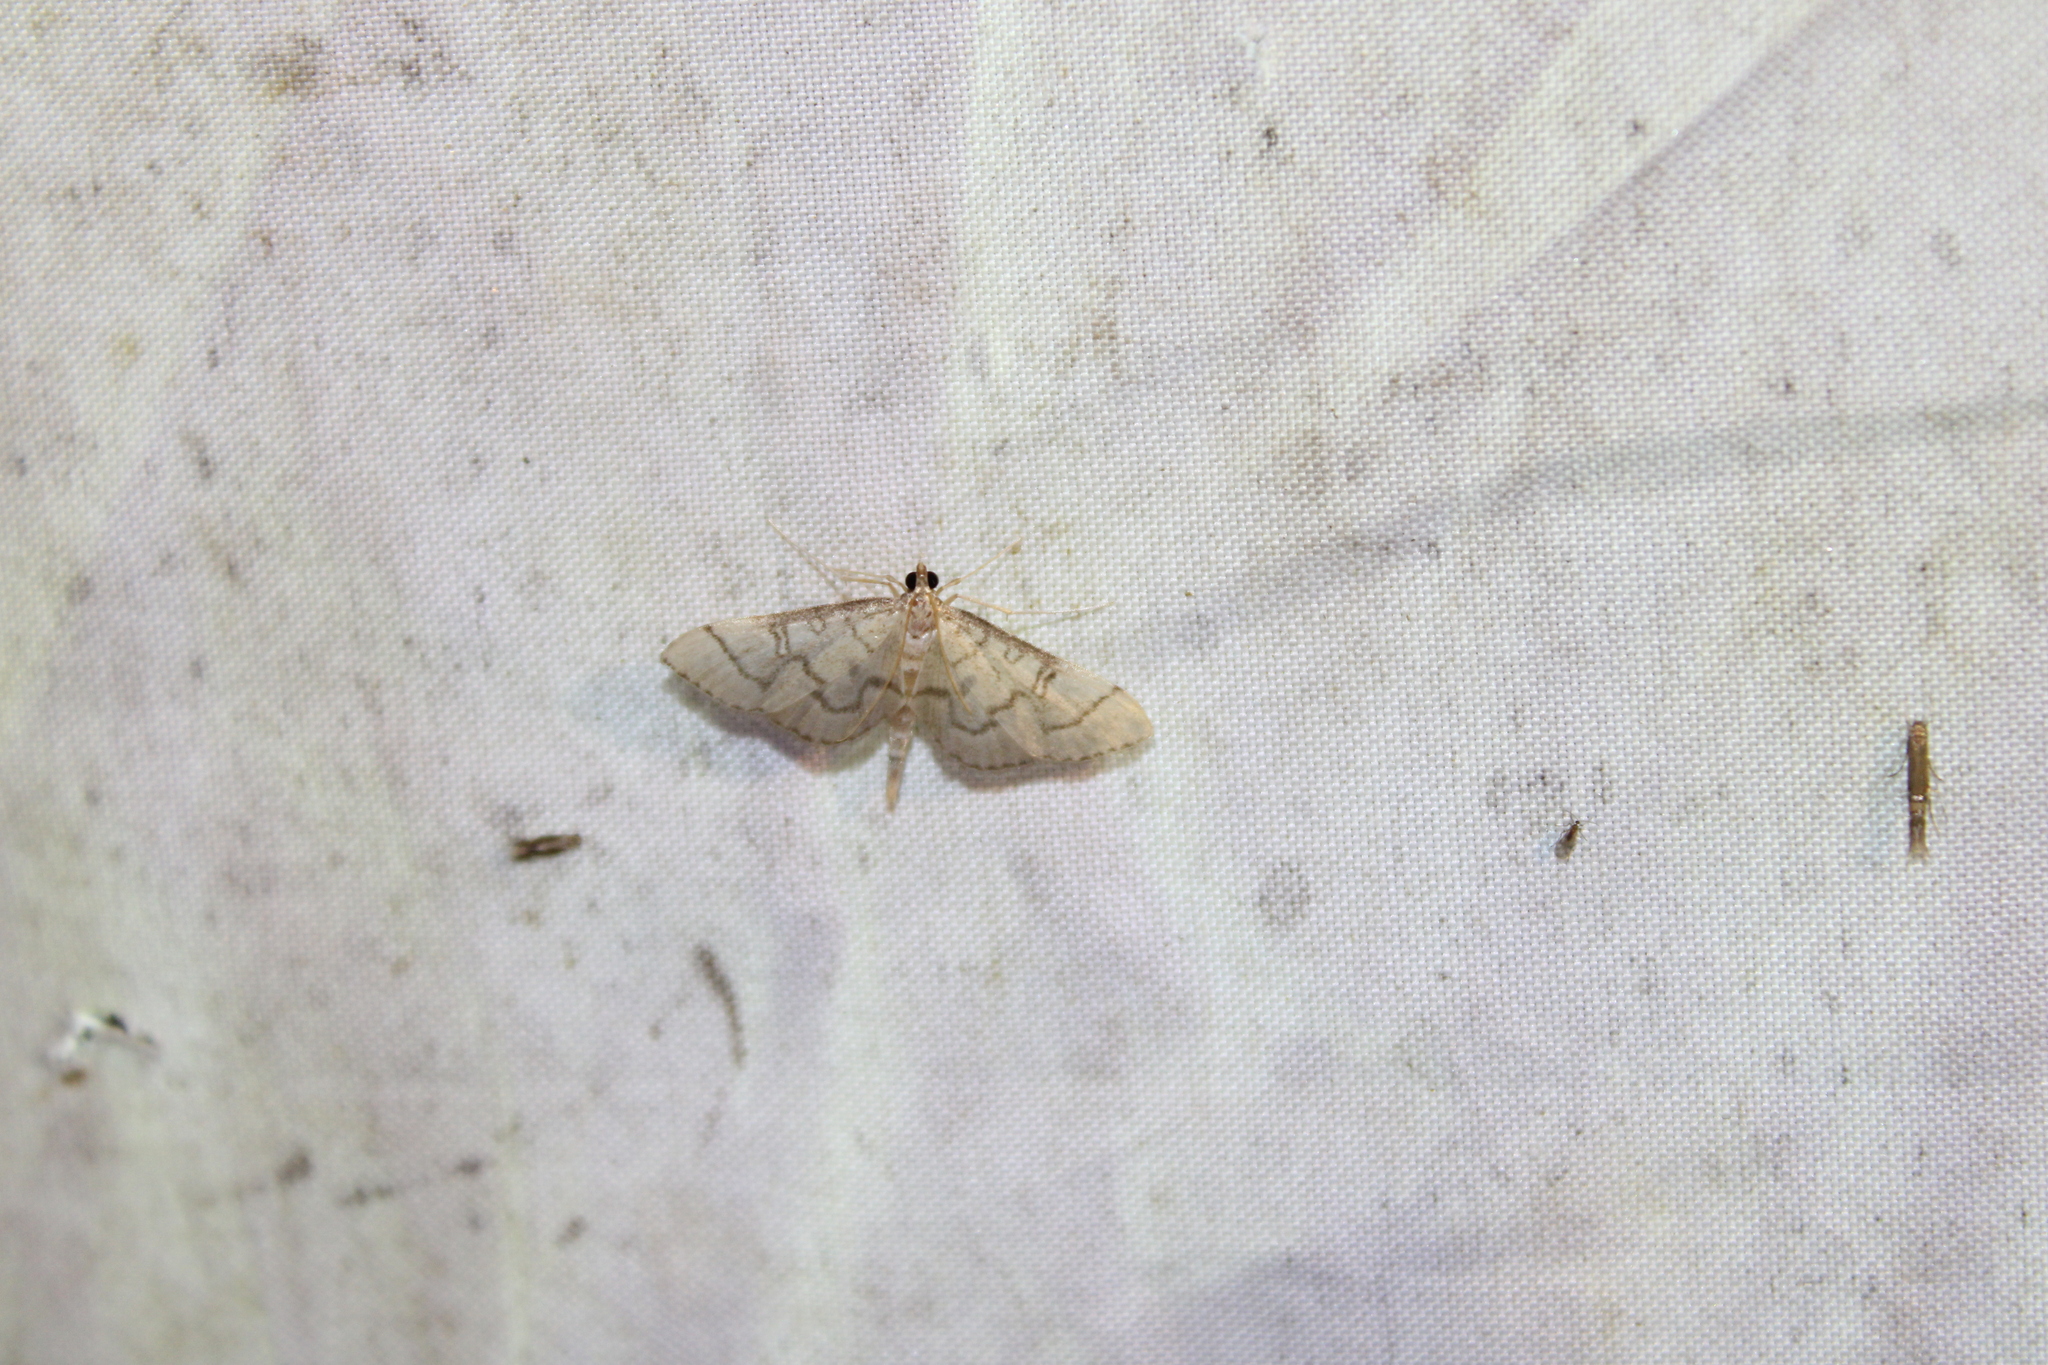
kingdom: Animalia
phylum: Arthropoda
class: Insecta
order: Lepidoptera
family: Crambidae
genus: Lamprosema
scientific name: Lamprosema Blepharomastix ranalis
